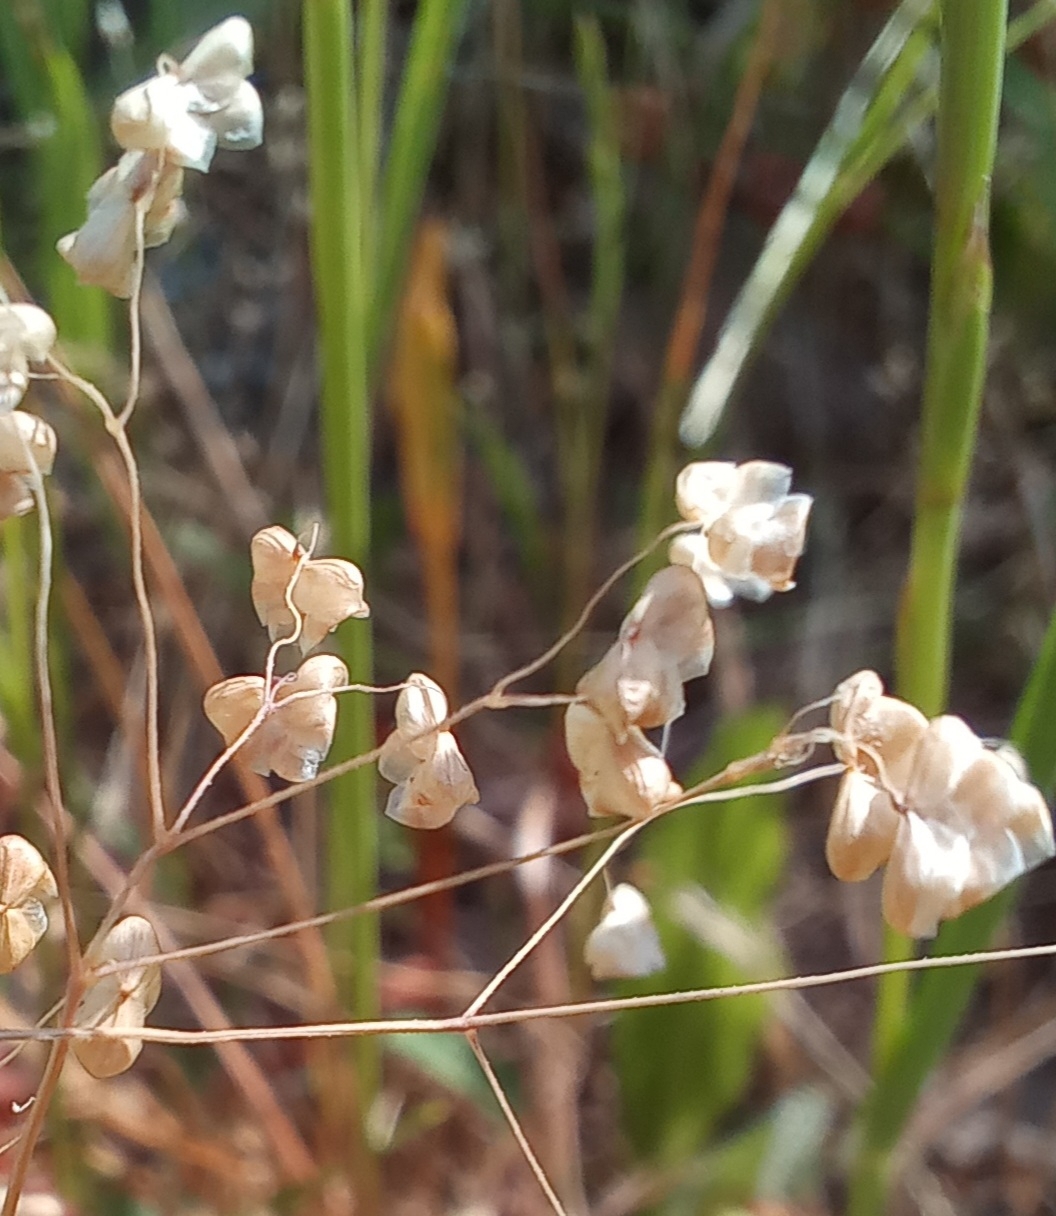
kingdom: Plantae
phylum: Tracheophyta
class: Liliopsida
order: Poales
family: Poaceae
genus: Briza
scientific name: Briza minor
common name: Lesser quaking-grass
